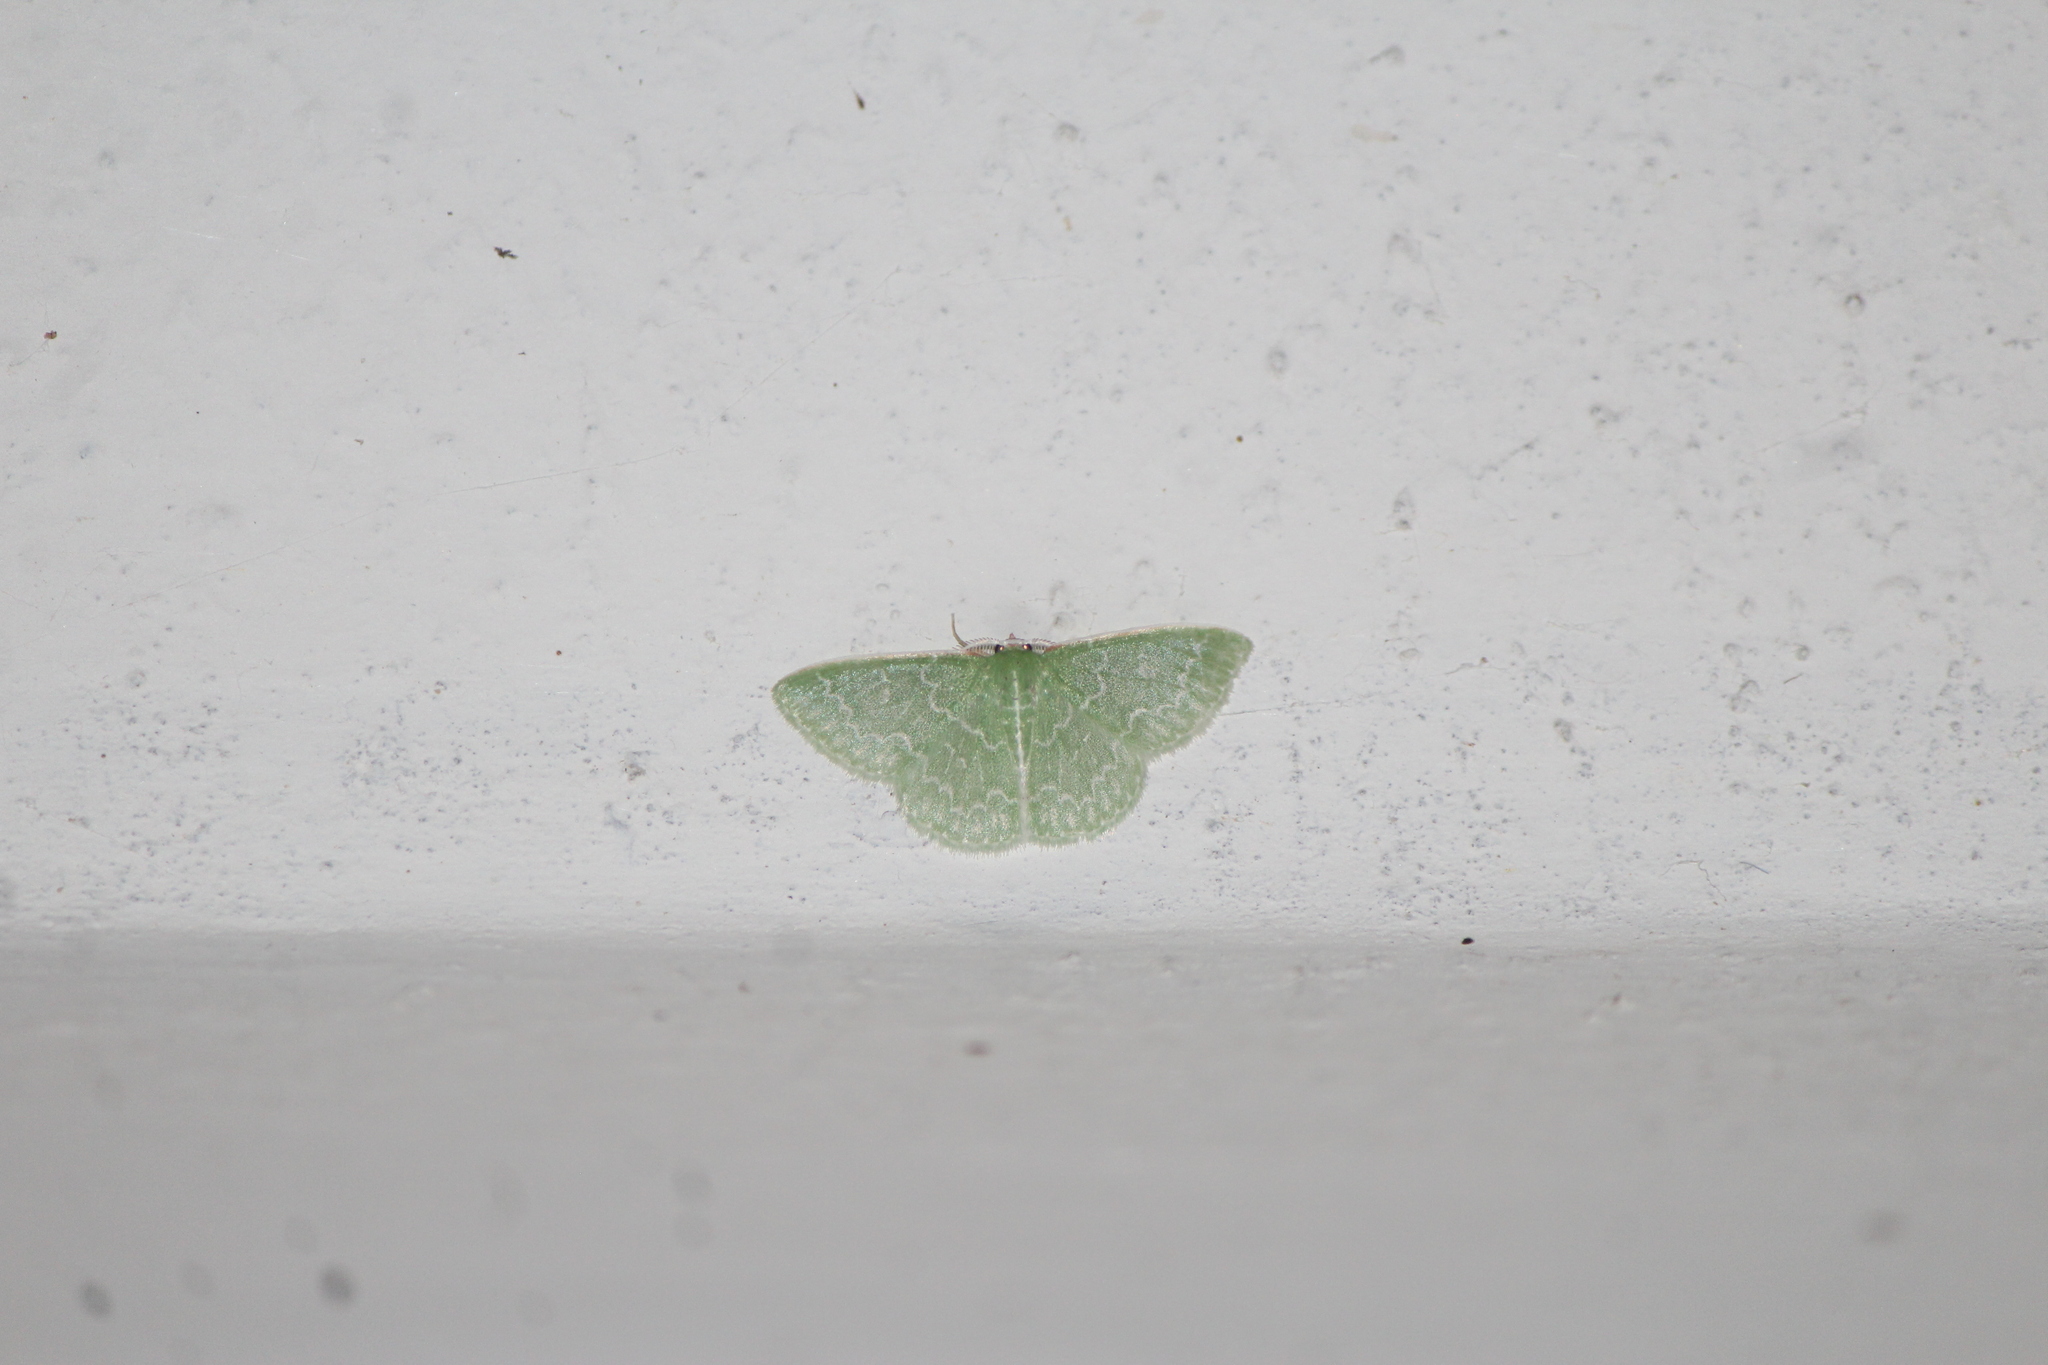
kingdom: Animalia
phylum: Arthropoda
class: Insecta
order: Lepidoptera
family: Geometridae
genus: Synchlora
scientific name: Synchlora frondaria
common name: Southern emerald
